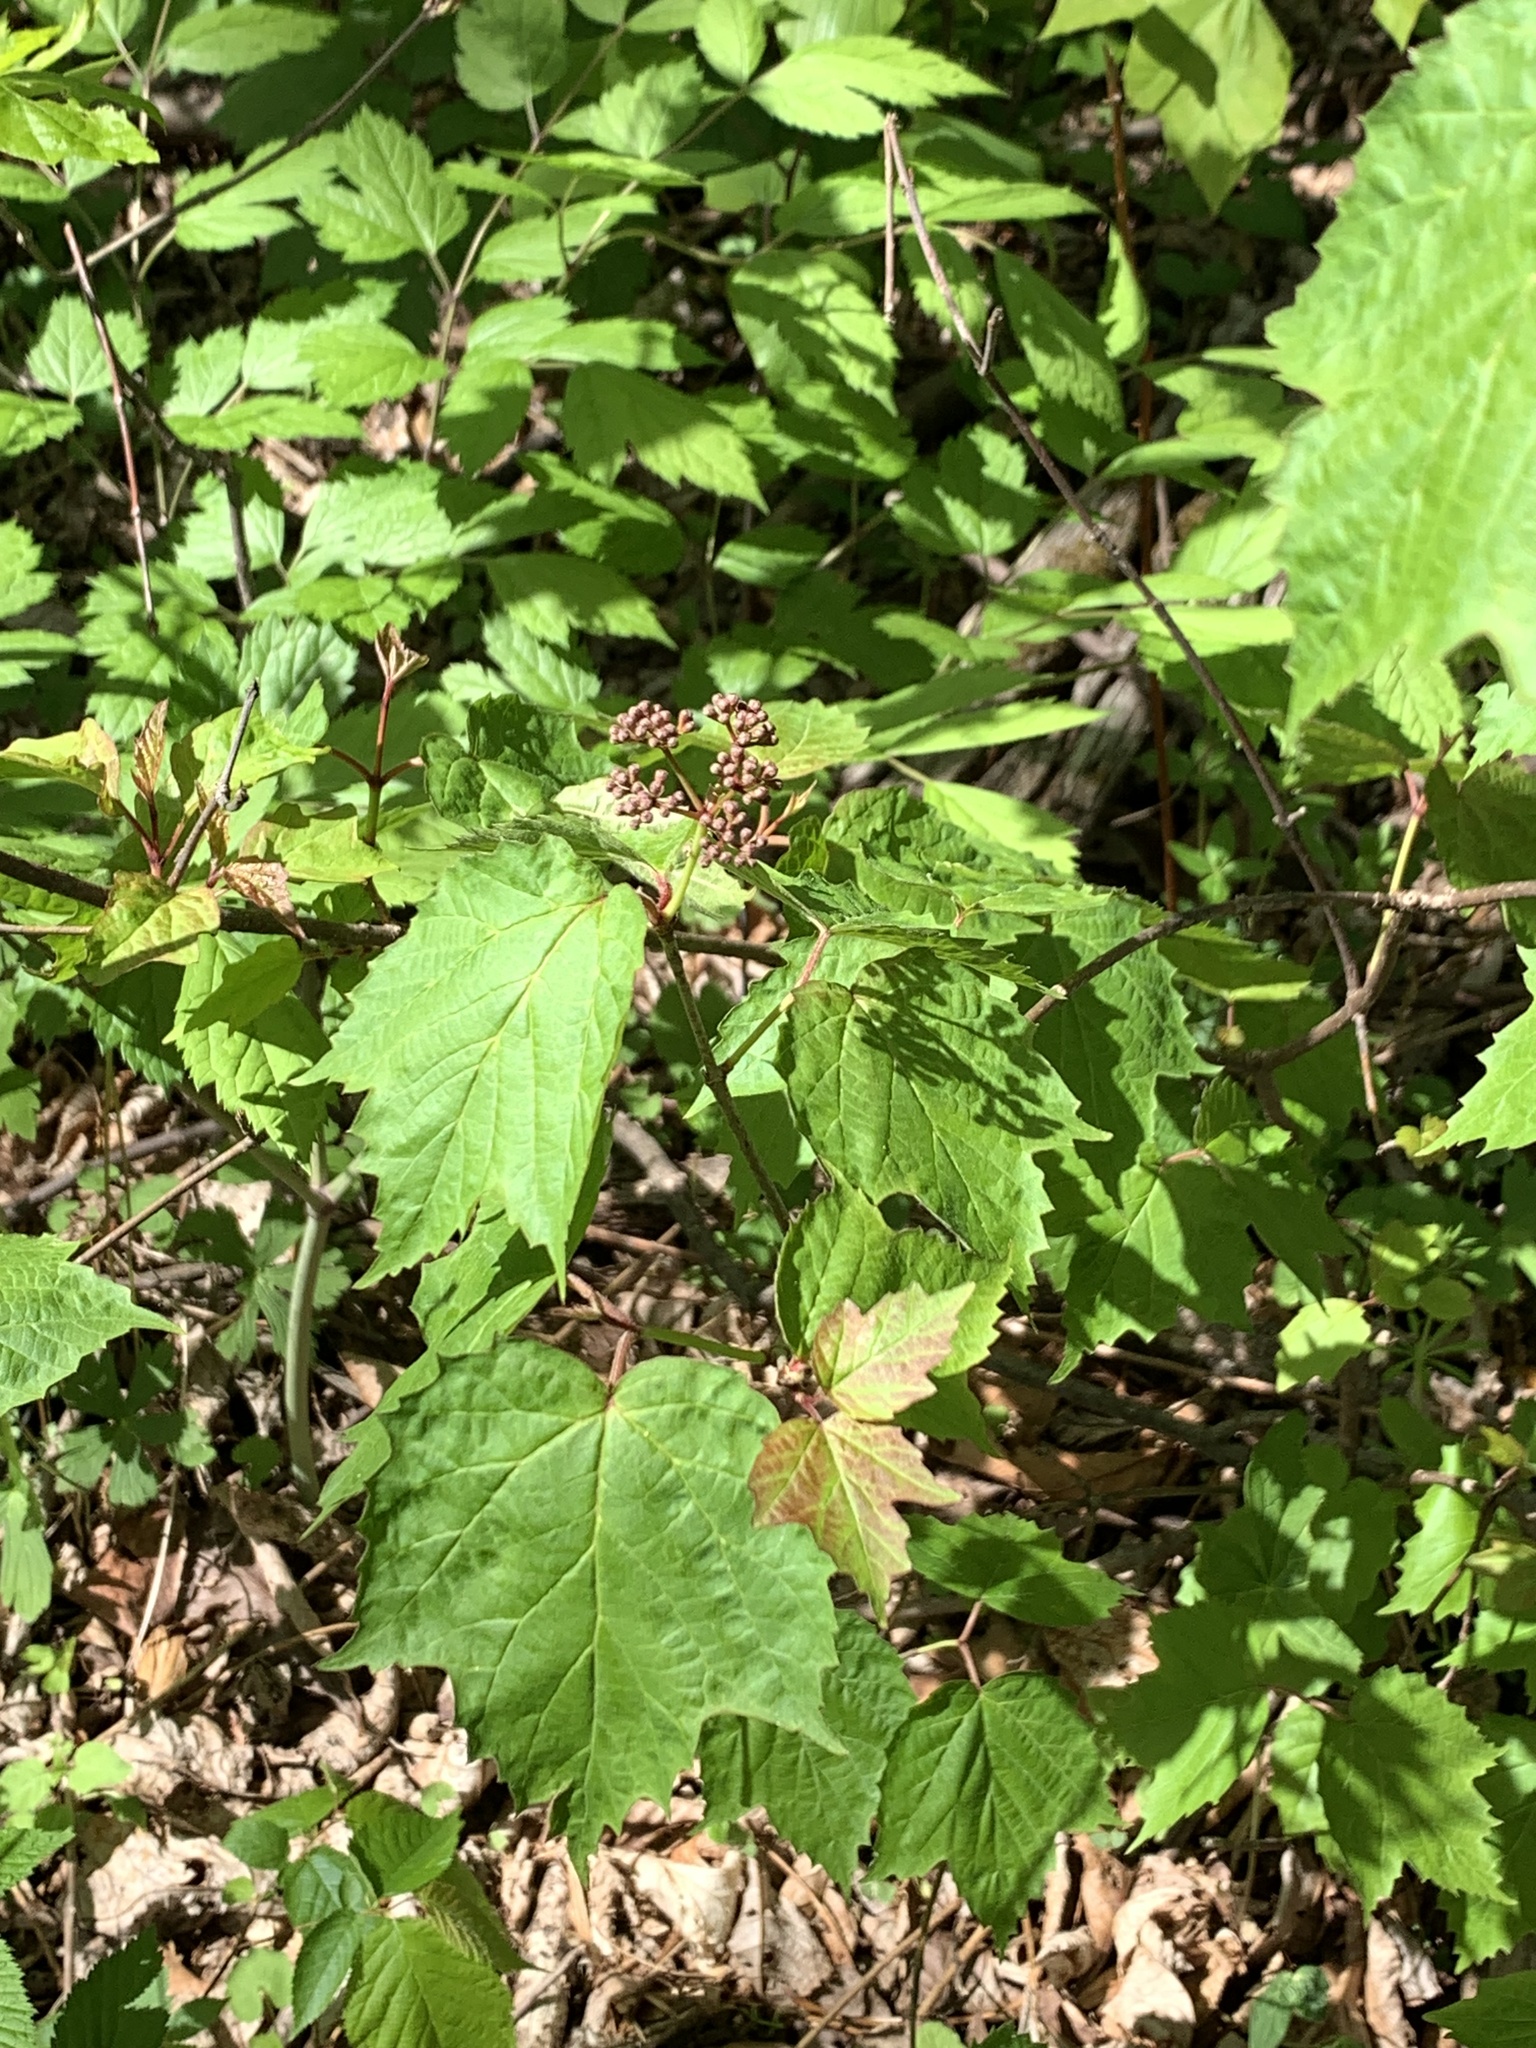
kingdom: Plantae
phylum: Tracheophyta
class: Magnoliopsida
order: Dipsacales
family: Viburnaceae
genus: Viburnum
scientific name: Viburnum acerifolium
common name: Dockmackie
